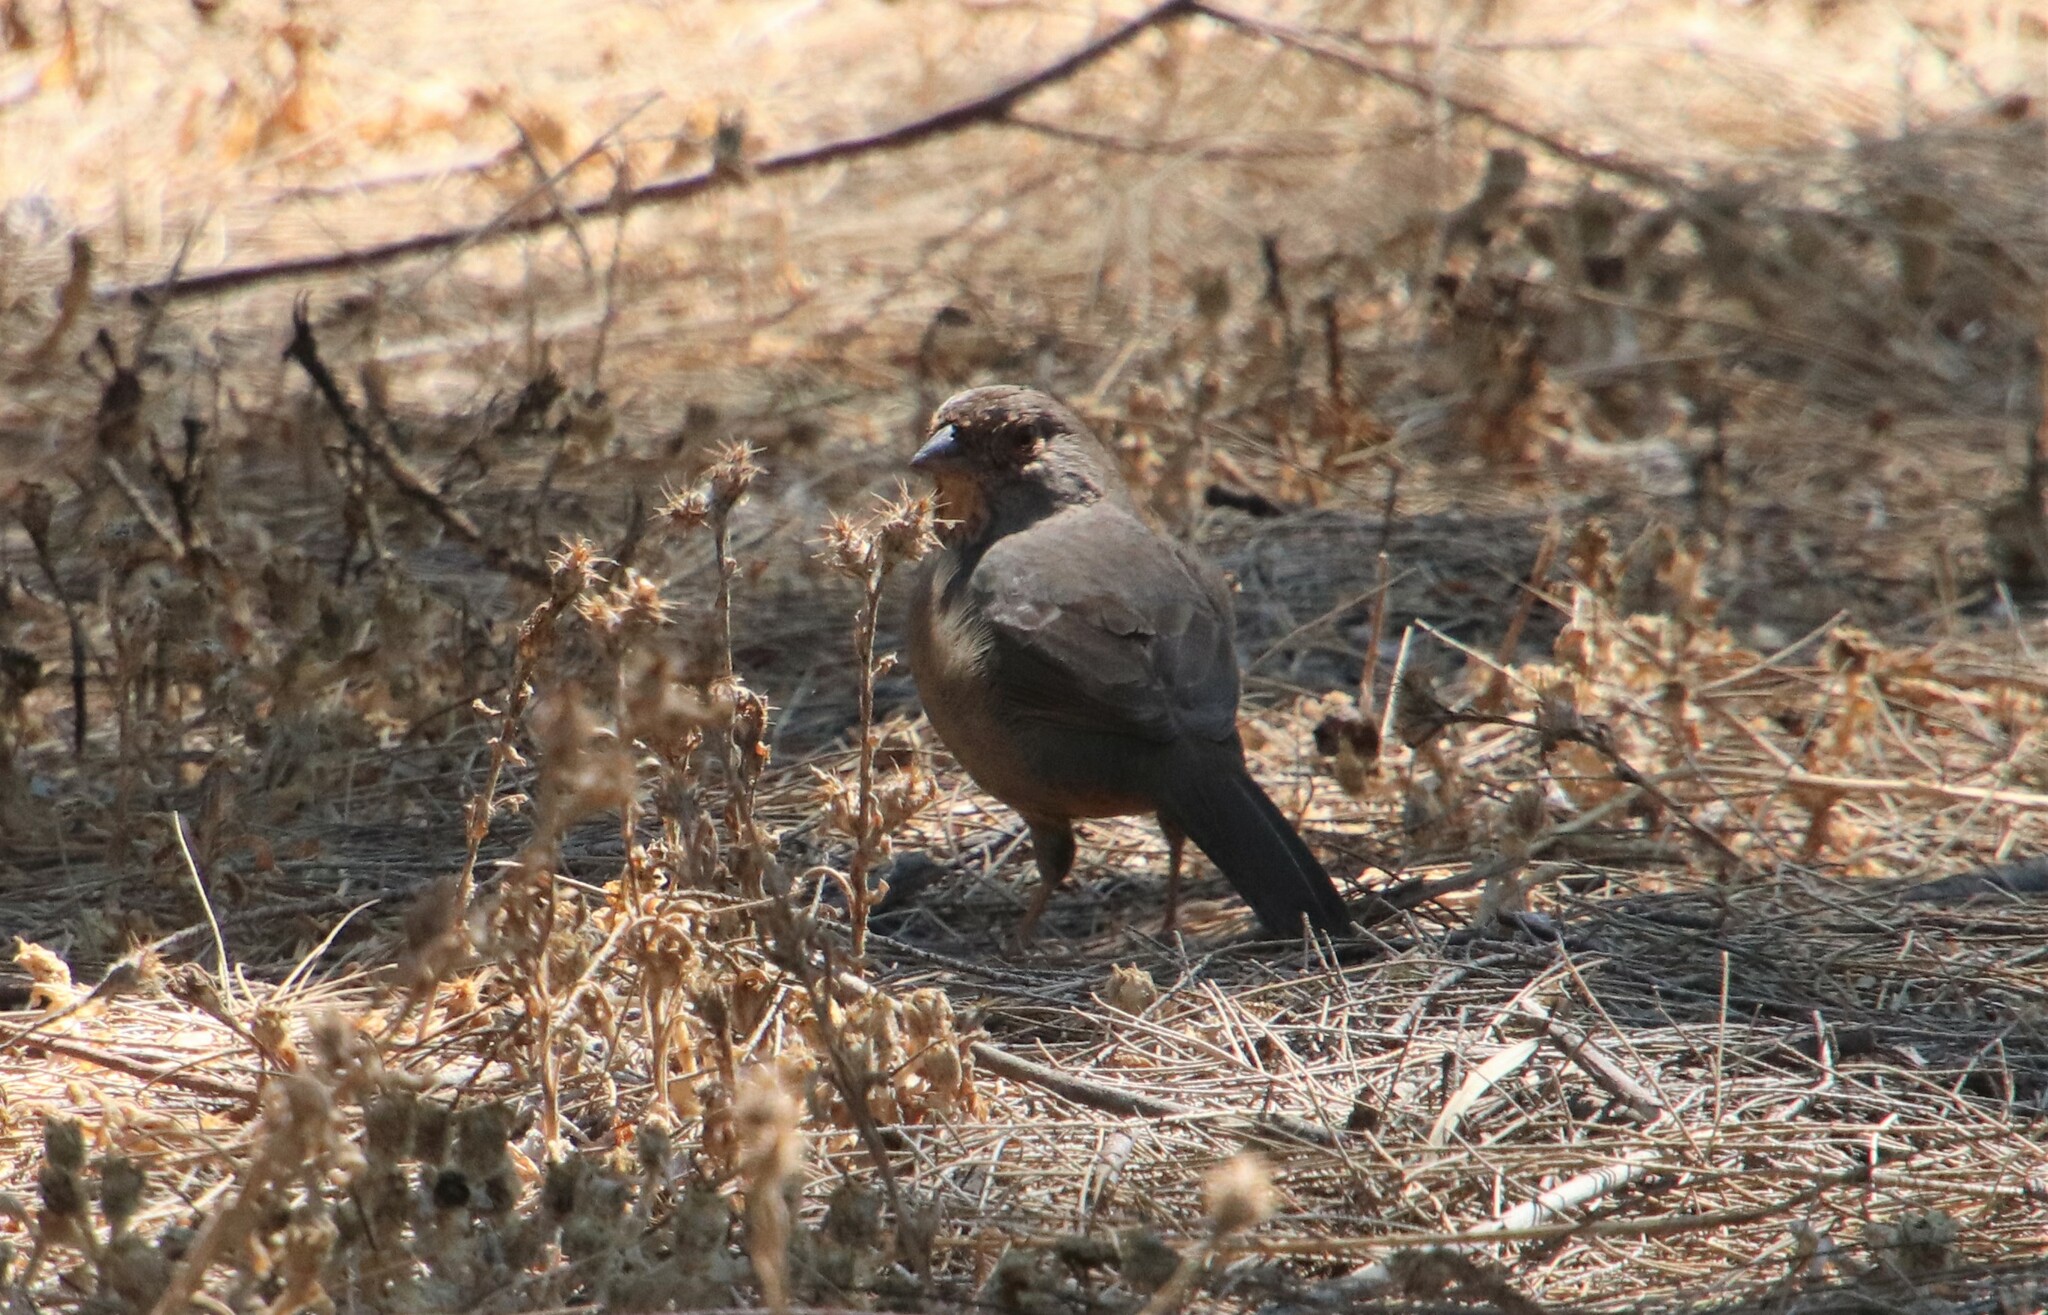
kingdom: Animalia
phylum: Chordata
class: Aves
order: Passeriformes
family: Passerellidae
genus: Melozone
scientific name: Melozone crissalis
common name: California towhee
